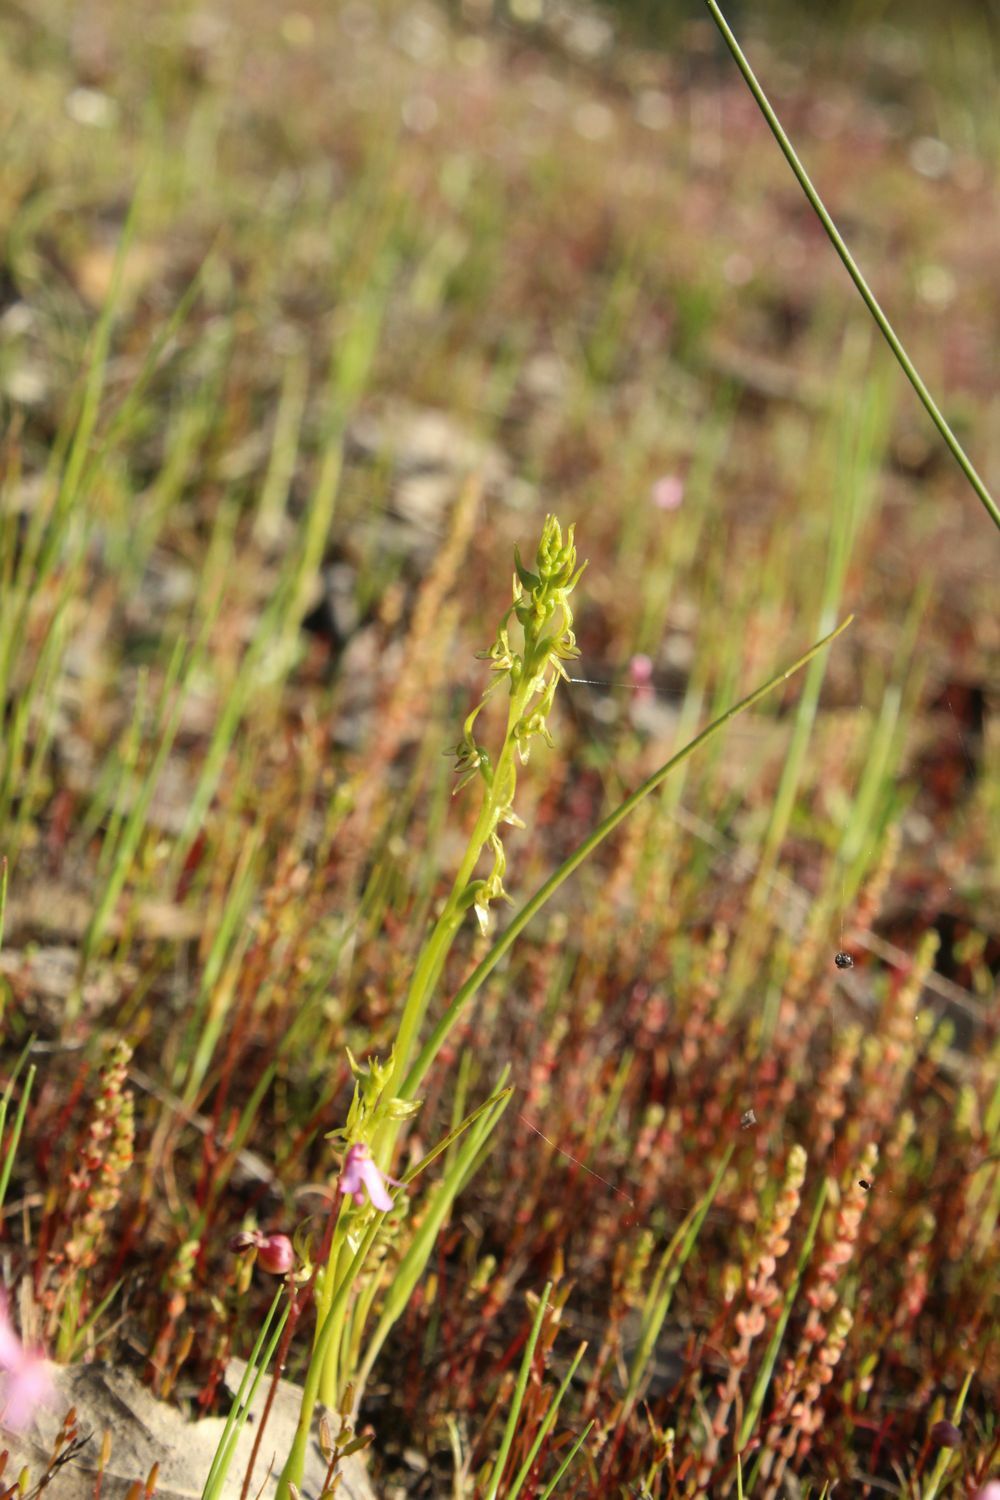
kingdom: Plantae
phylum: Tracheophyta
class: Liliopsida
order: Asparagales
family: Orchidaceae
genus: Prasophyllum
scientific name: Prasophyllum gracile
